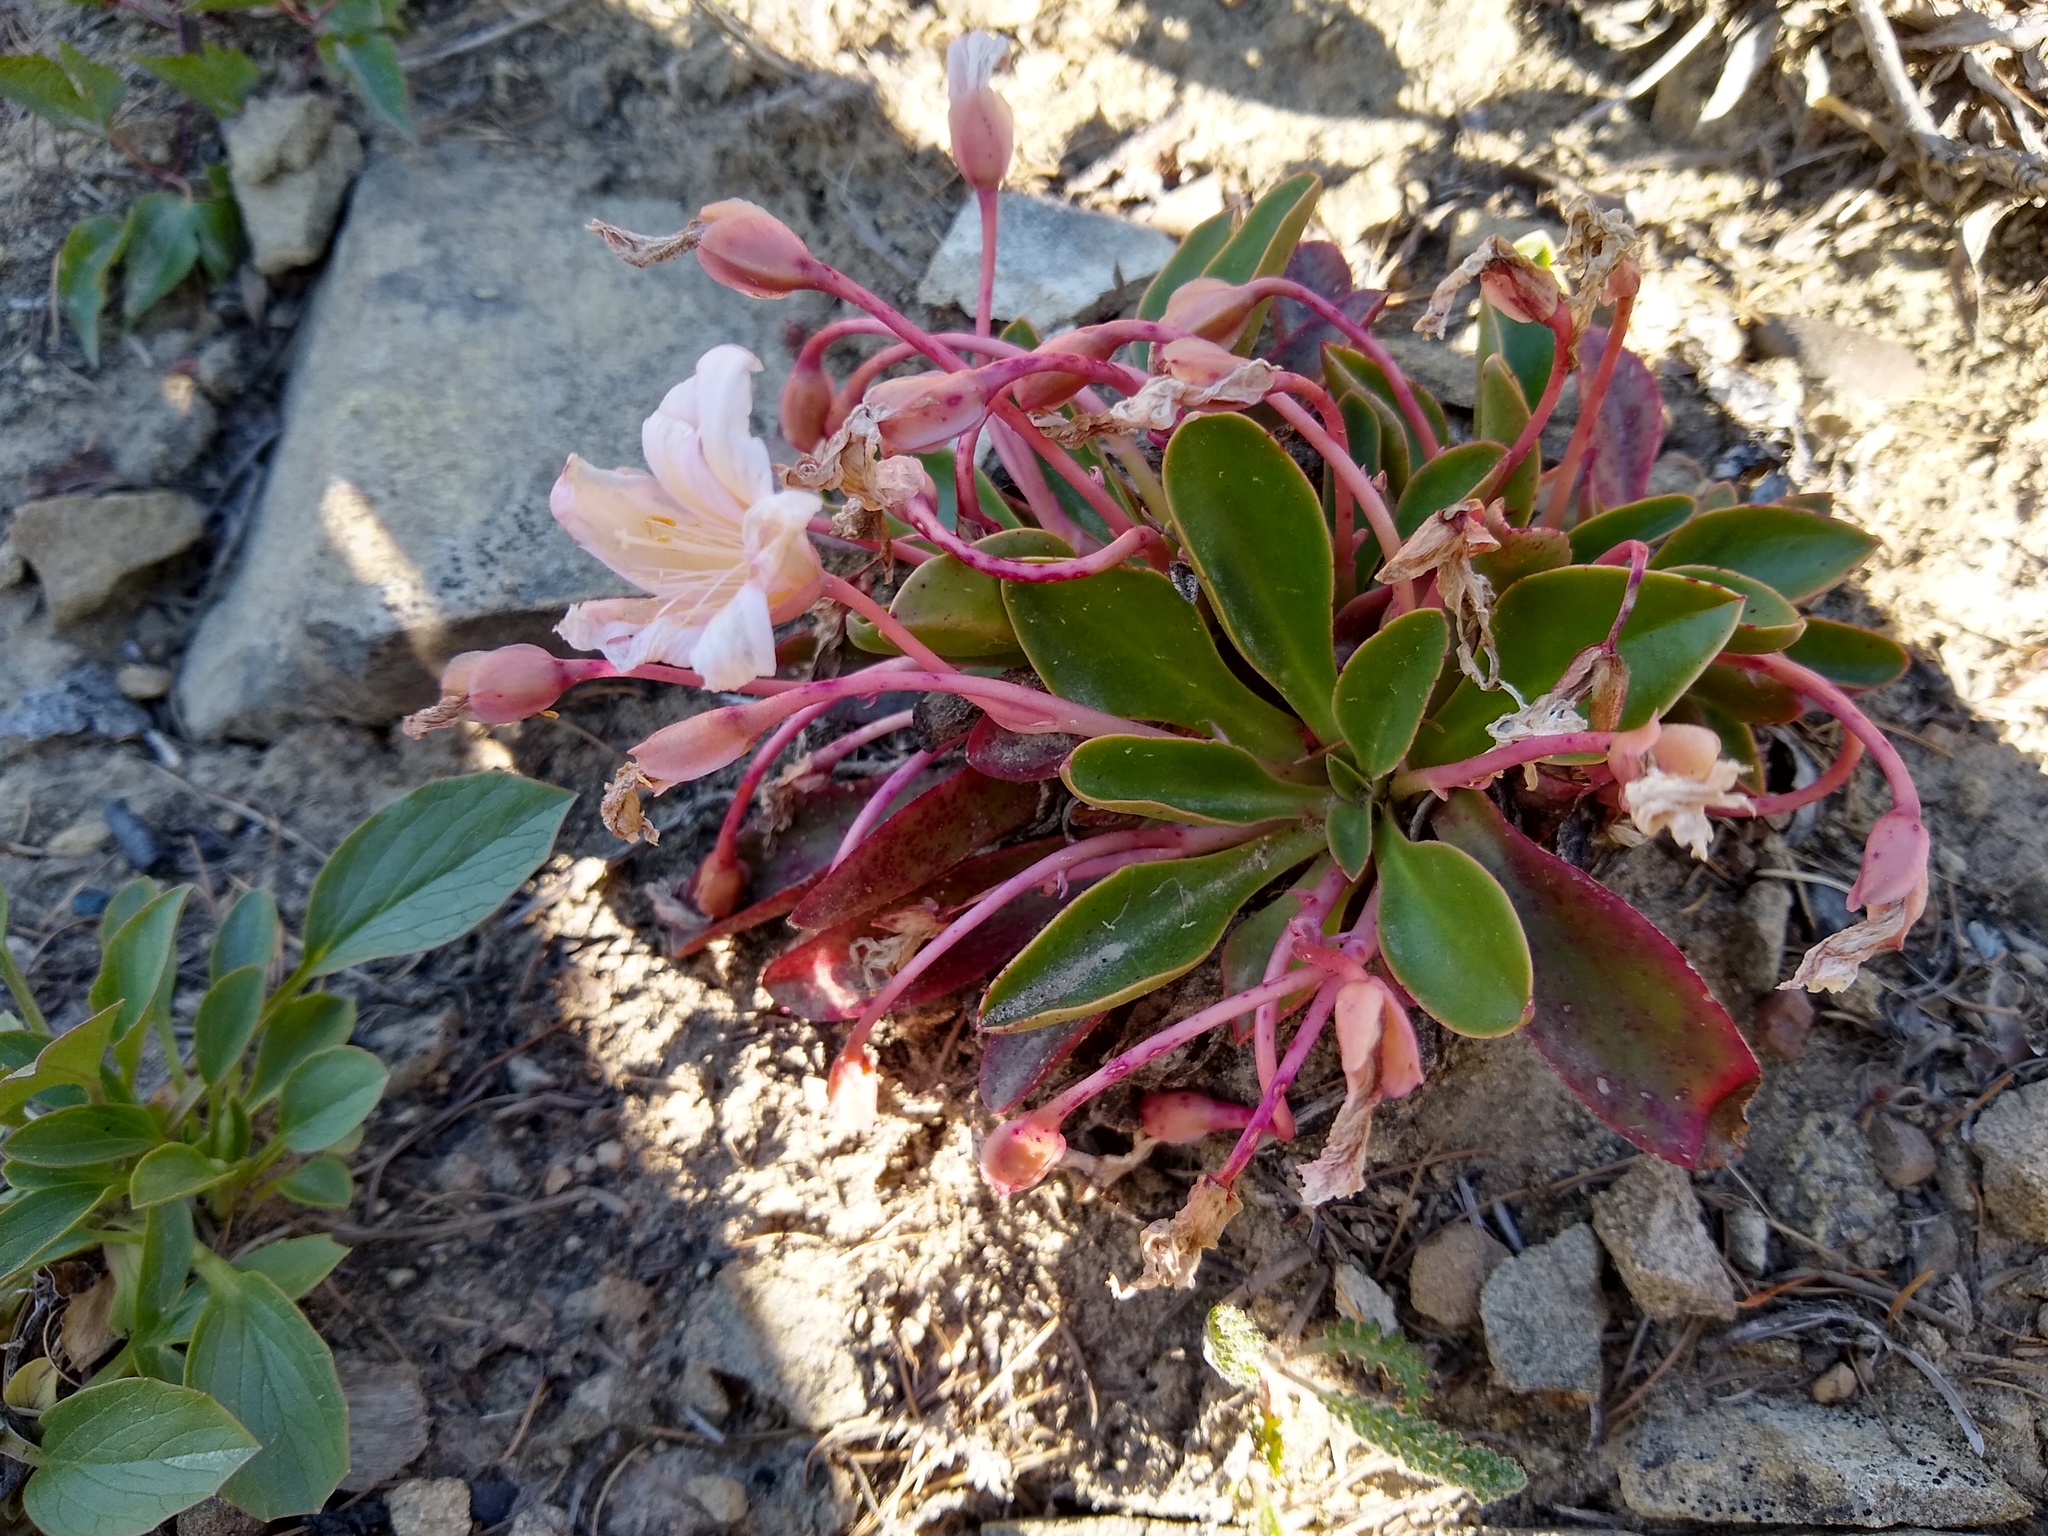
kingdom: Plantae
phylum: Tracheophyta
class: Magnoliopsida
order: Caryophyllales
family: Montiaceae
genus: Lewisiopsis
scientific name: Lewisiopsis tweedyi
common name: Tweedy's pussypaws
